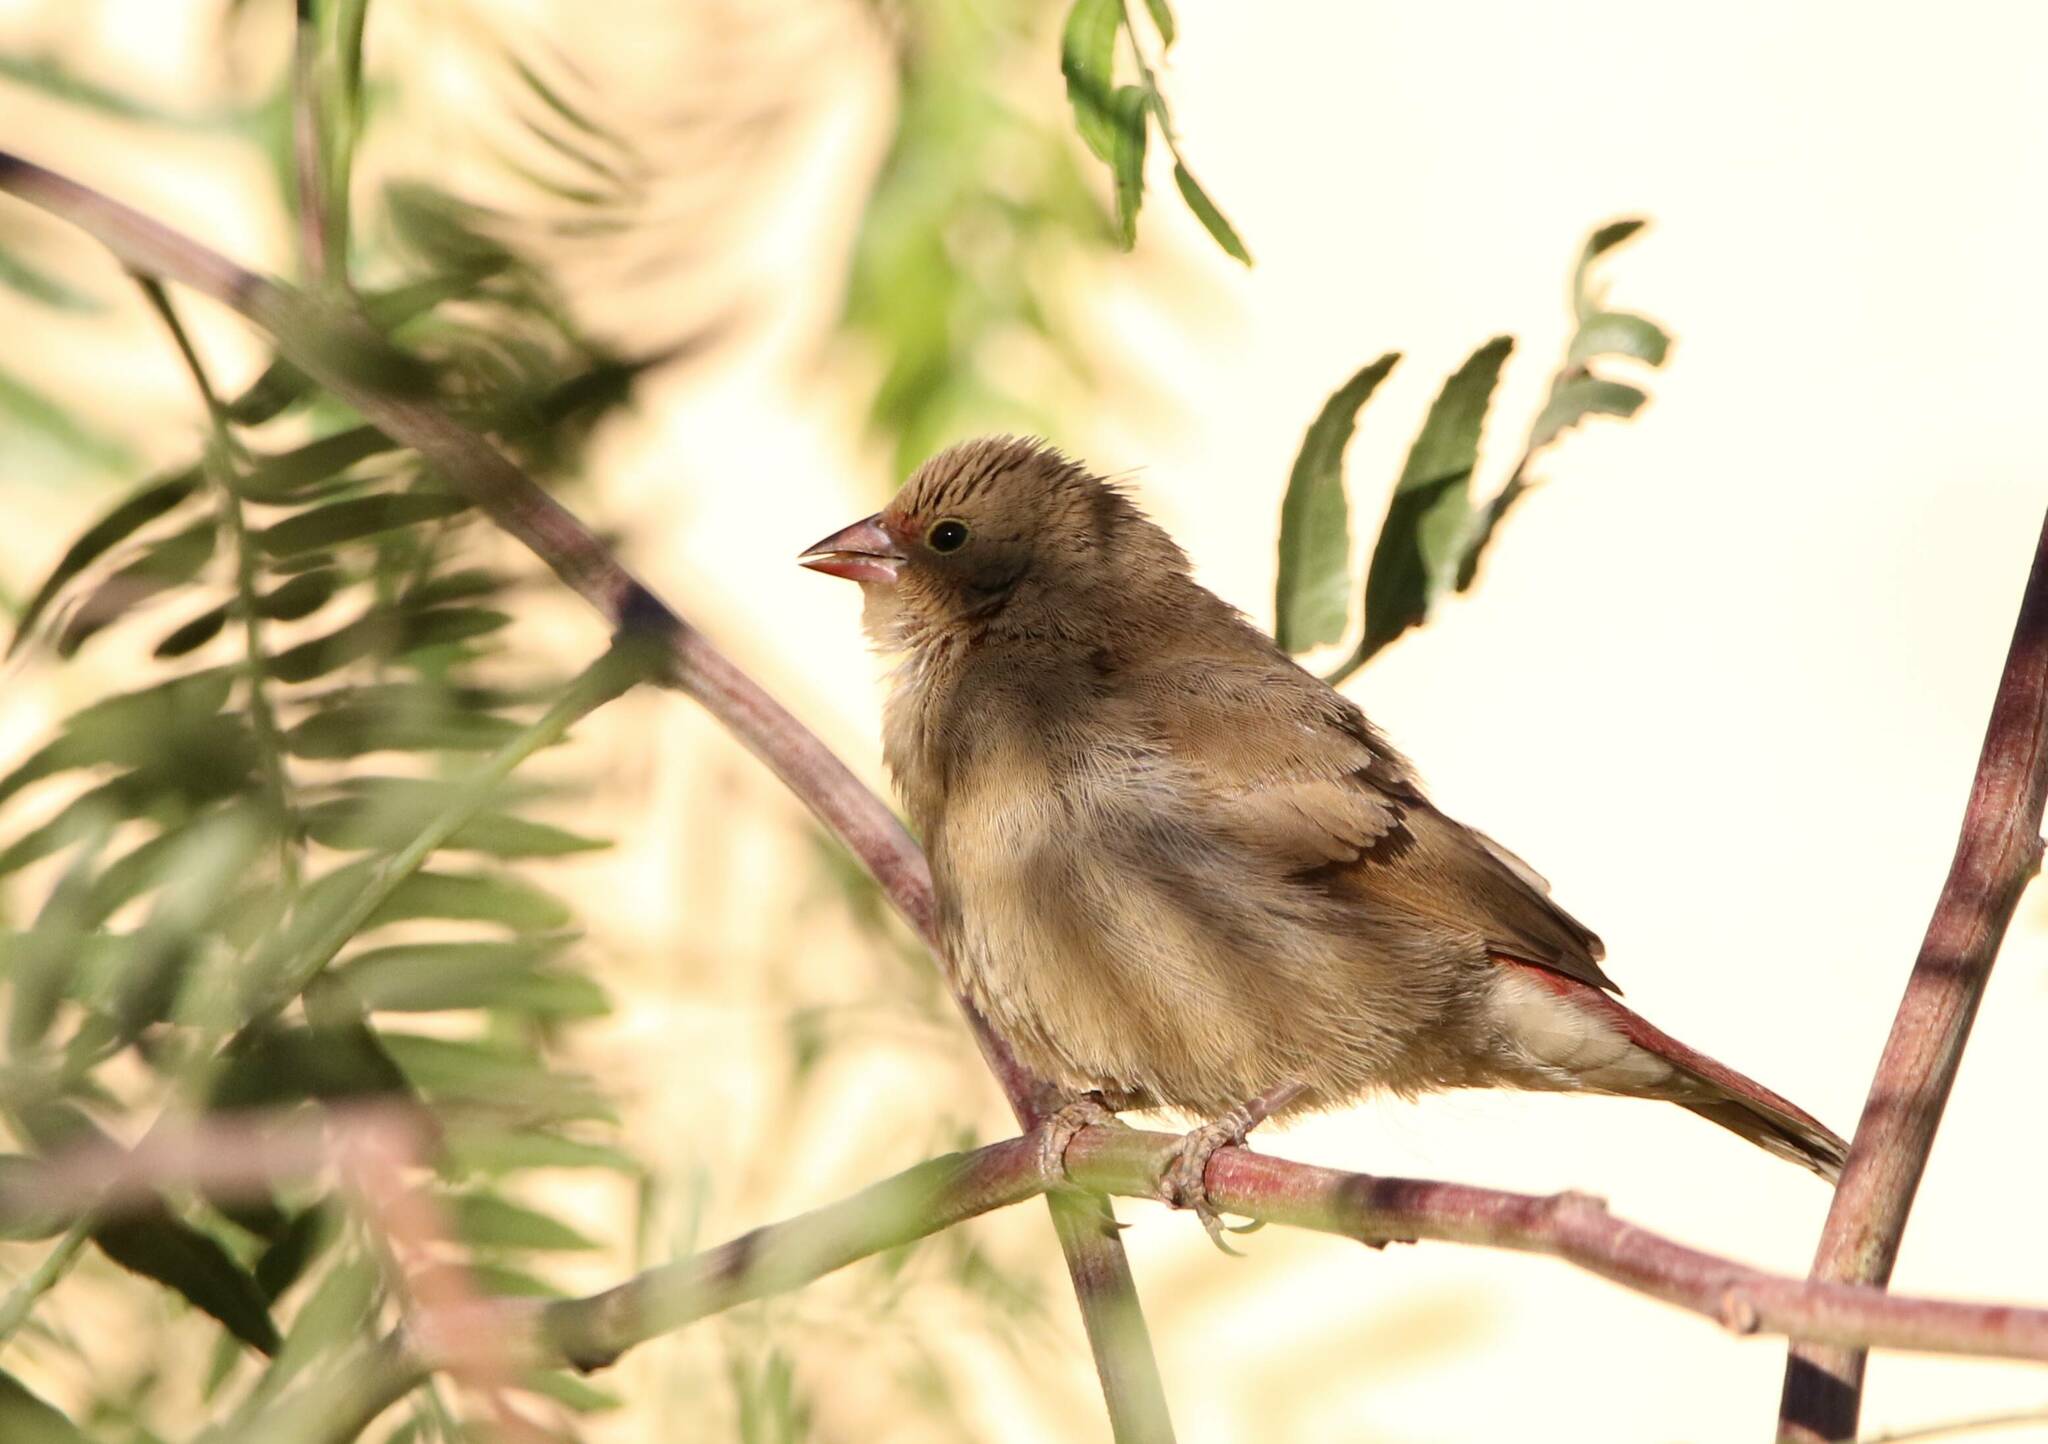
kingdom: Animalia
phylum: Chordata
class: Aves
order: Passeriformes
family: Estrildidae
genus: Lagonosticta
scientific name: Lagonosticta senegala
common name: Red-billed firefinch
